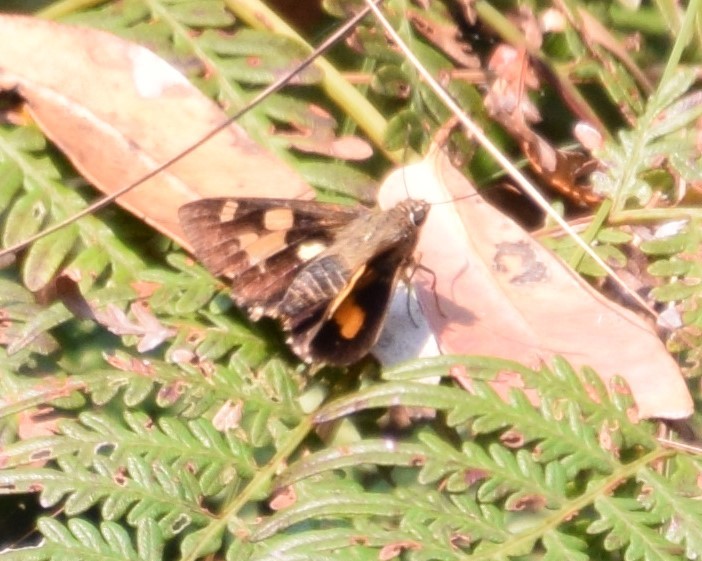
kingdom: Animalia
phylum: Arthropoda
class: Insecta
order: Lepidoptera
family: Hesperiidae
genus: Trapezites
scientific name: Trapezites symmomus
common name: Splendid ochre
